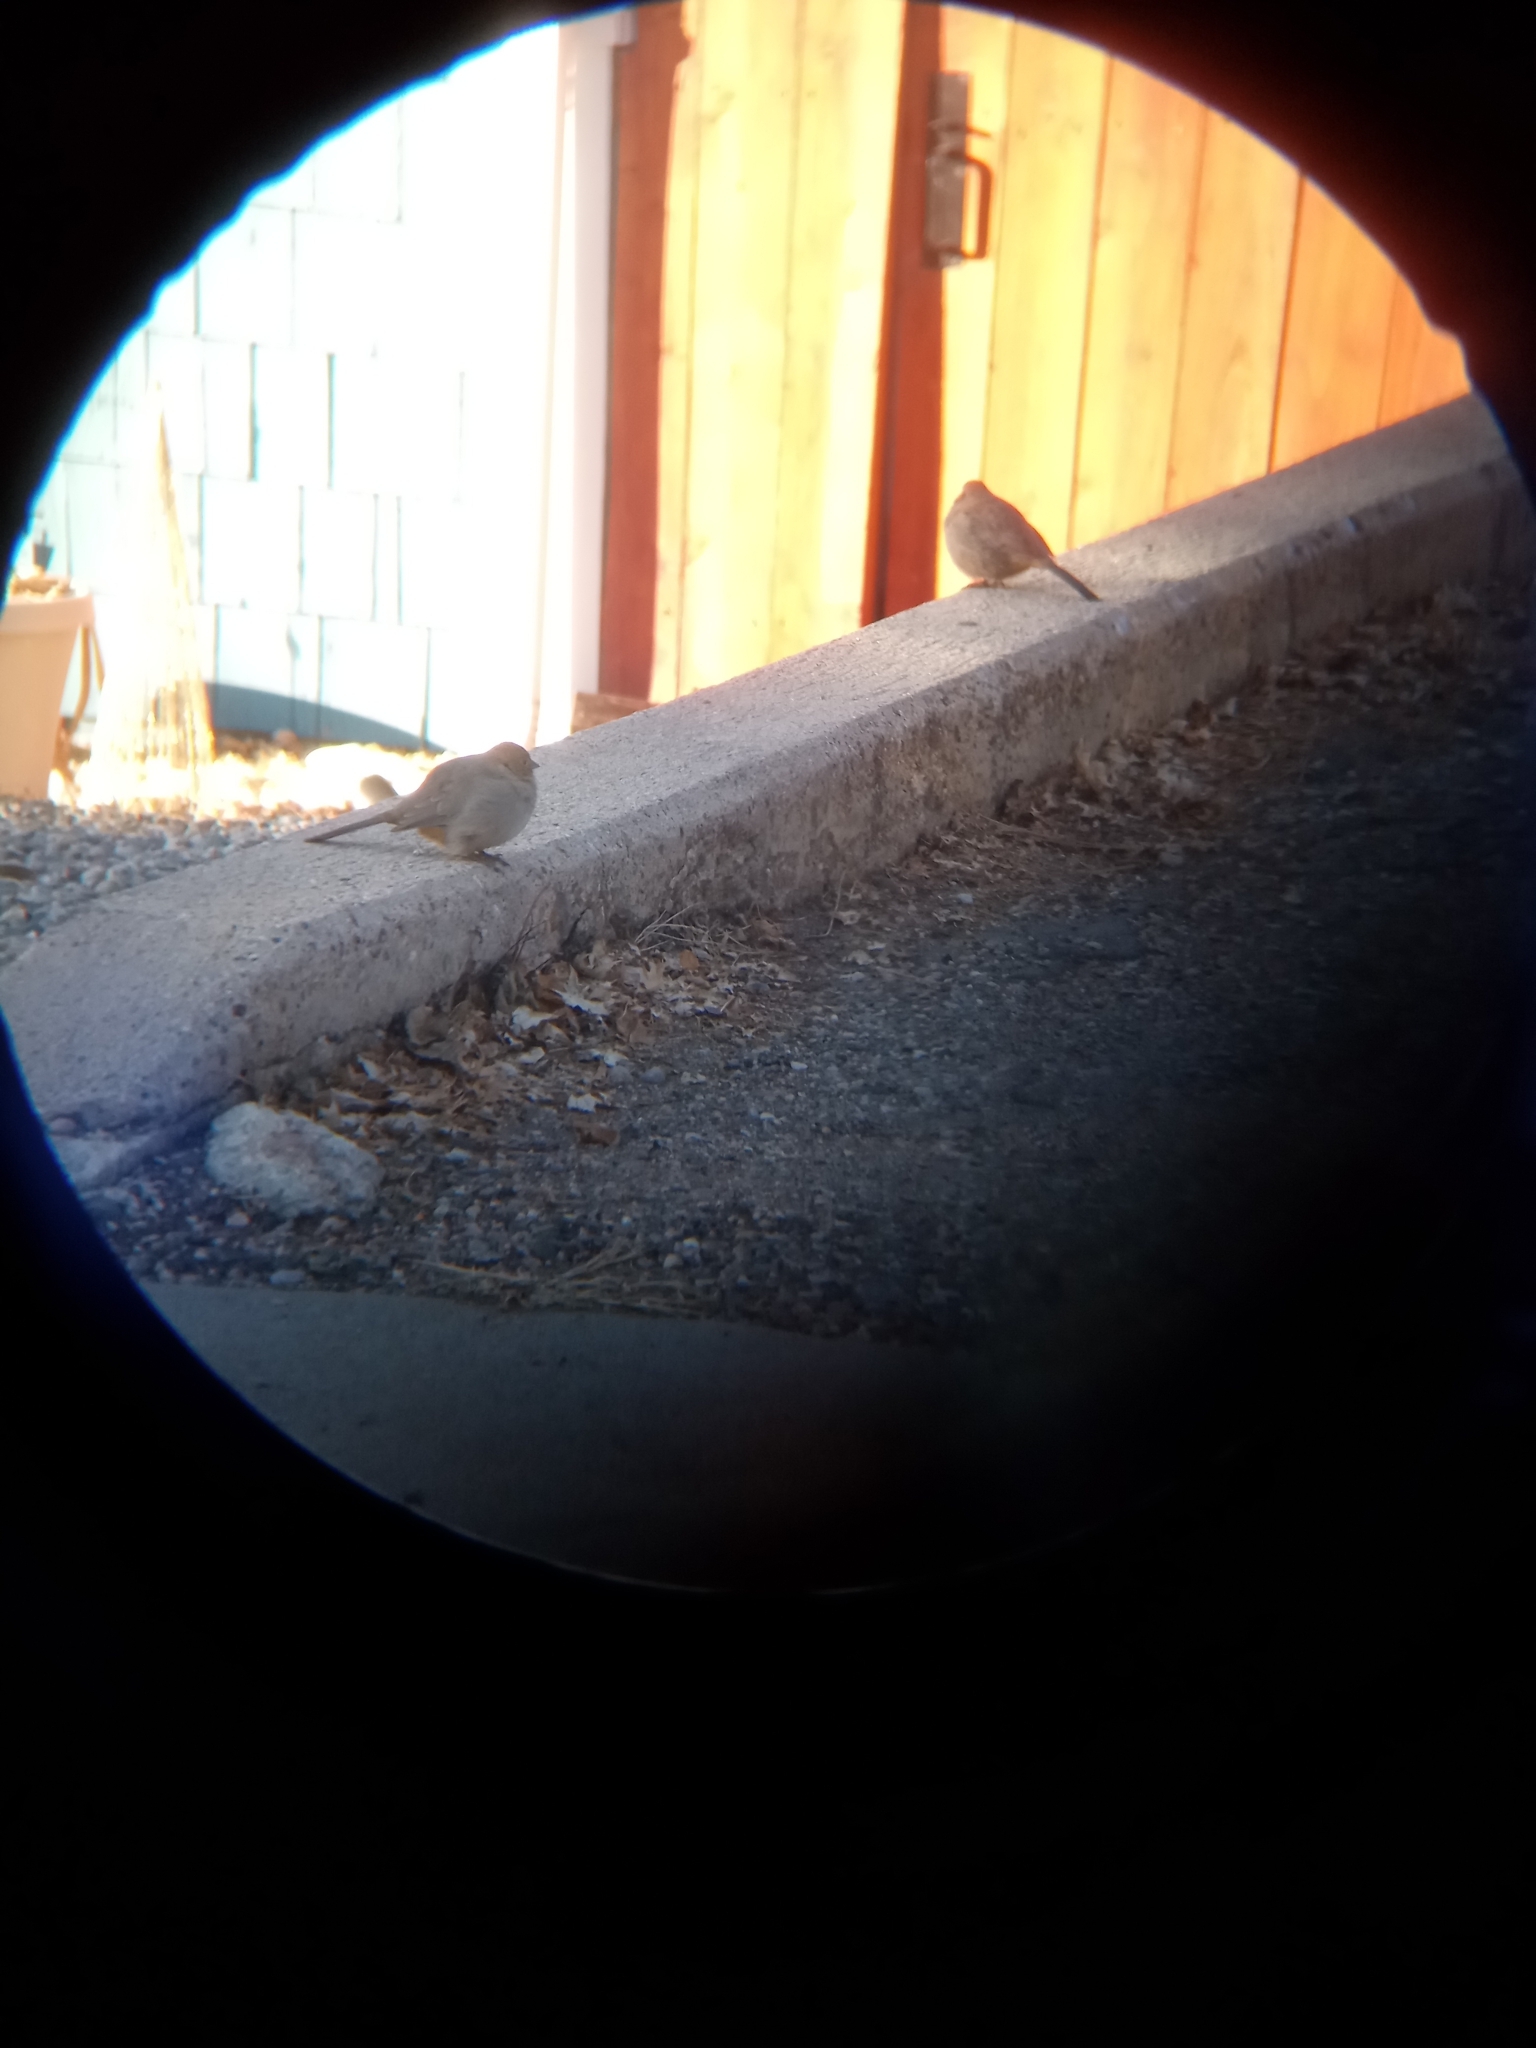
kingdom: Animalia
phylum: Chordata
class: Aves
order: Passeriformes
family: Passerellidae
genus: Melozone
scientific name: Melozone fusca
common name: Canyon towhee
